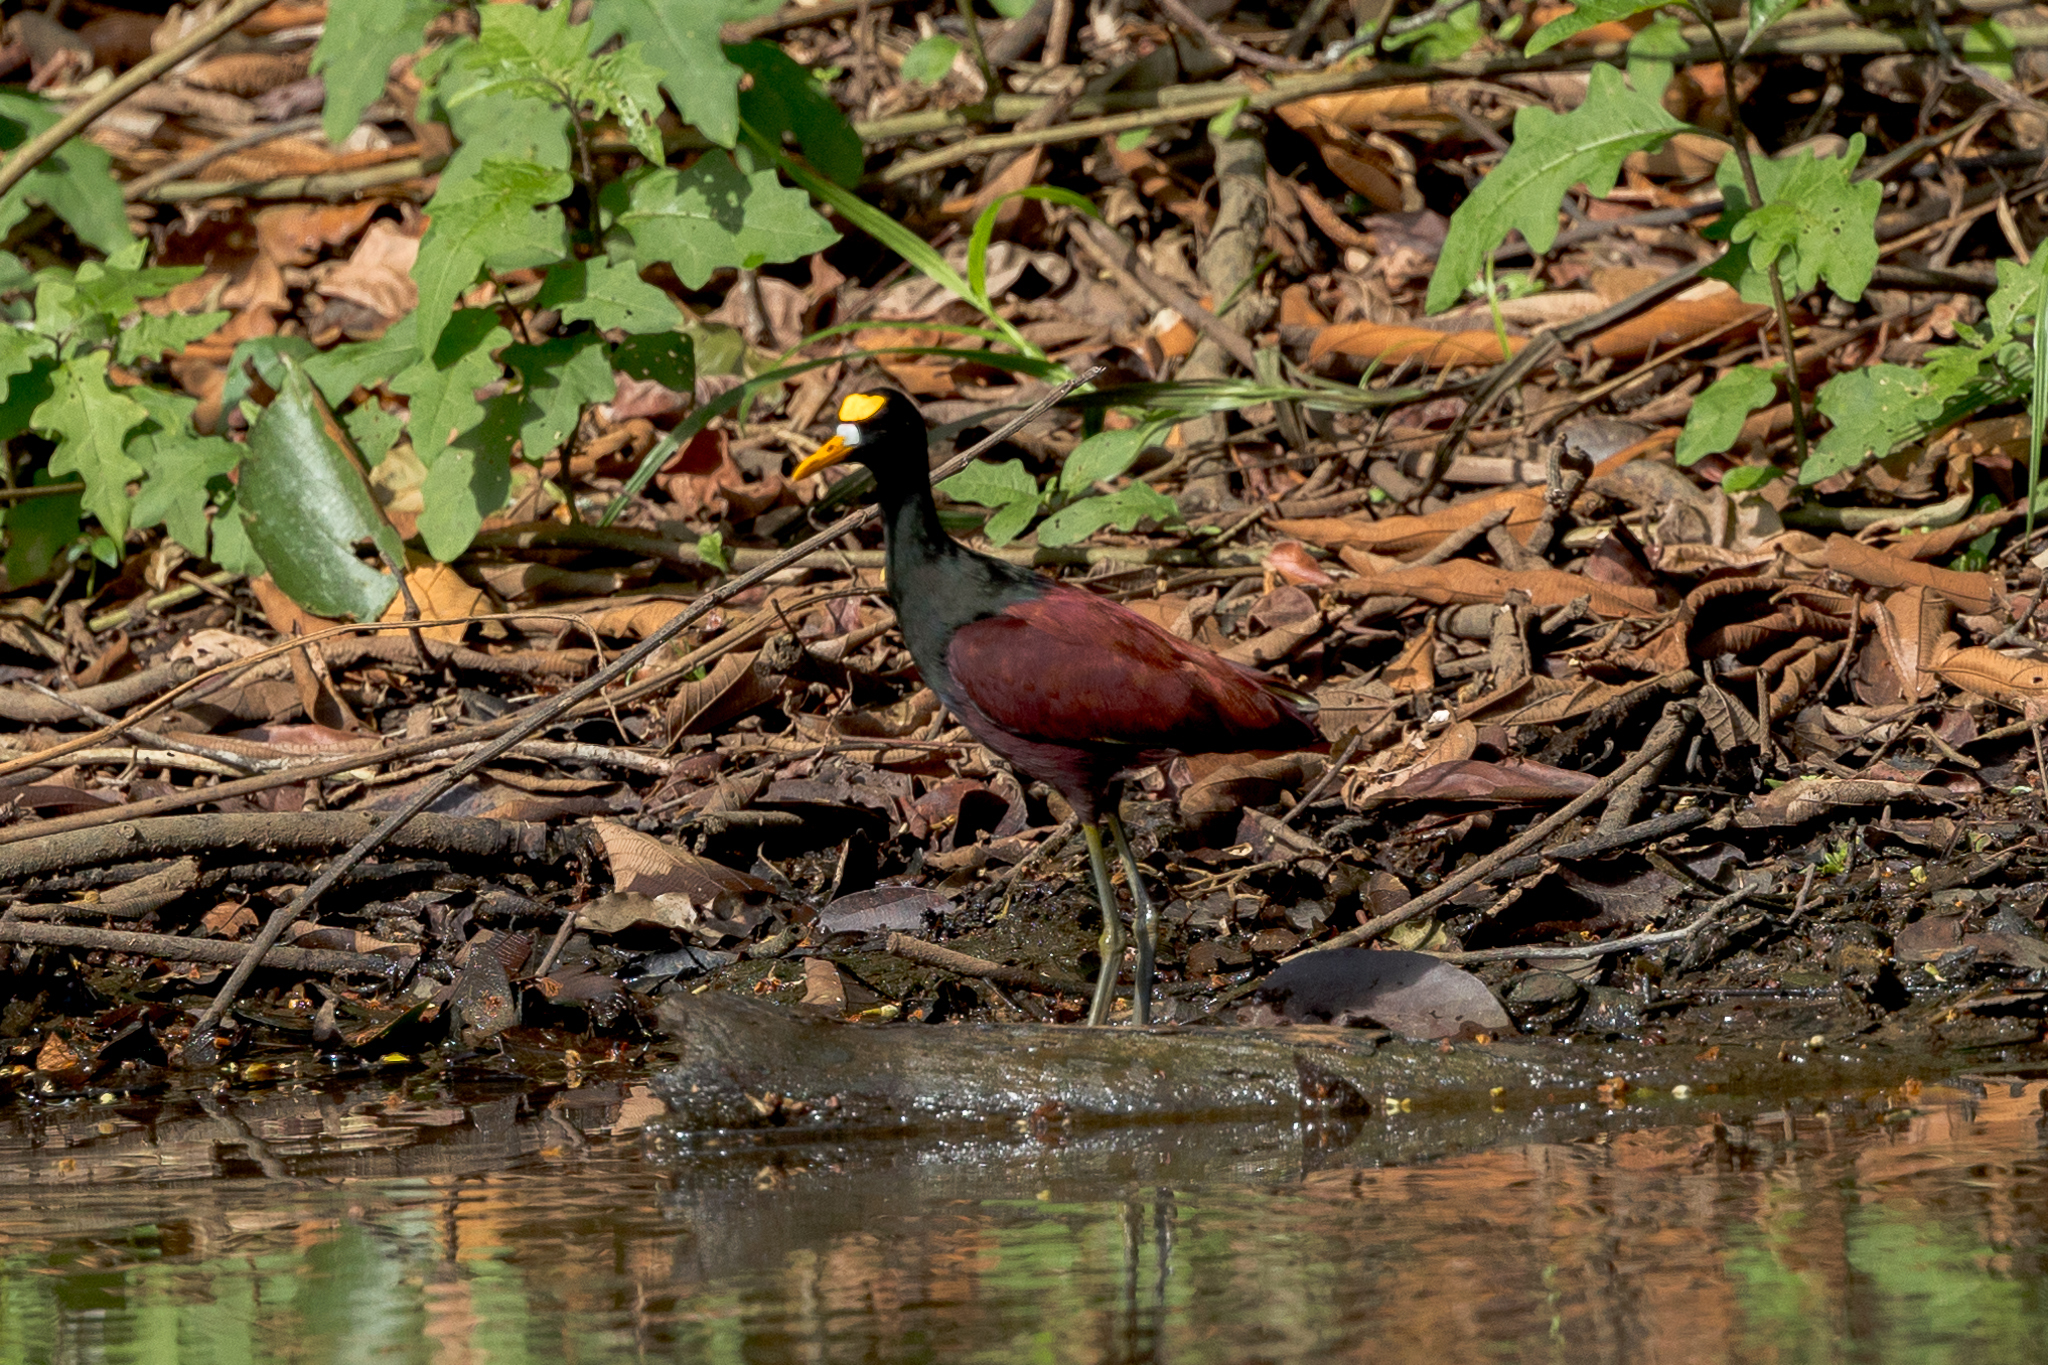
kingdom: Animalia
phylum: Chordata
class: Aves
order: Charadriiformes
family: Jacanidae
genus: Jacana
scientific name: Jacana spinosa
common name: Northern jacana
